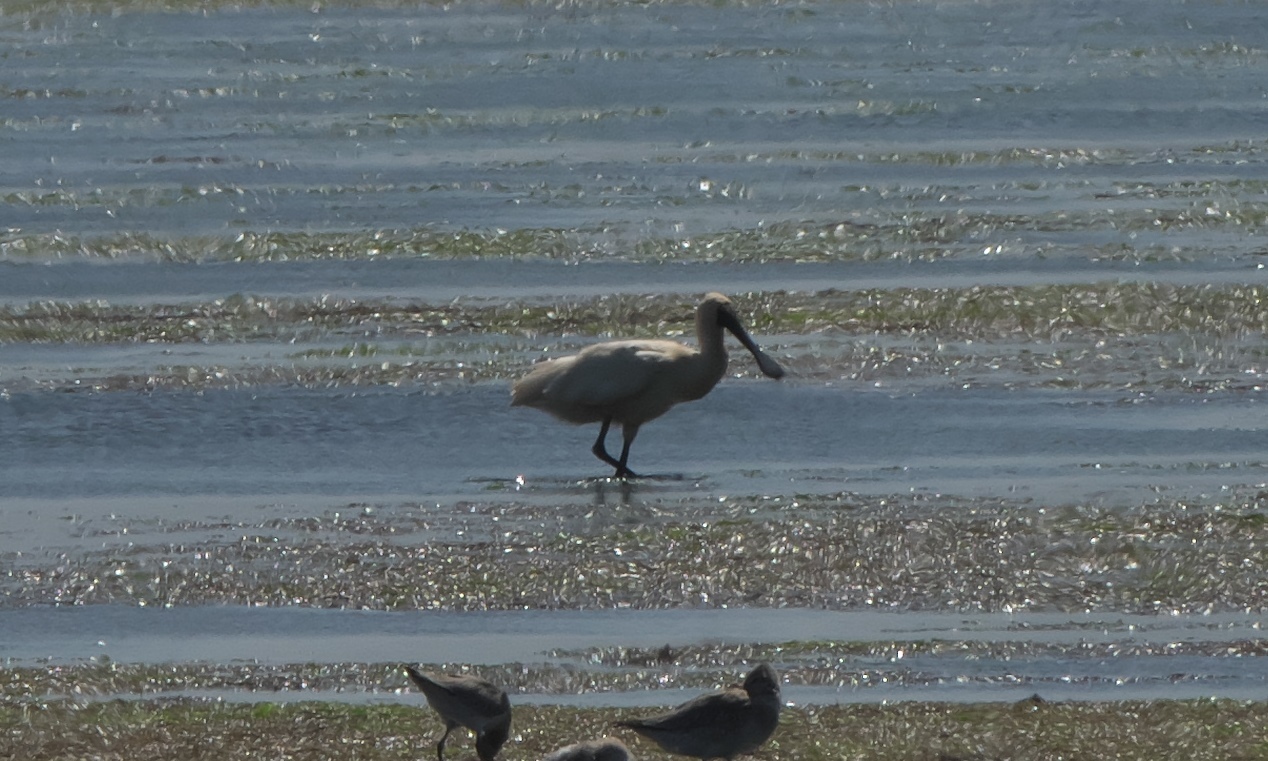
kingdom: Animalia
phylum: Chordata
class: Aves
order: Pelecaniformes
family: Threskiornithidae
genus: Platalea
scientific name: Platalea regia
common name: Royal spoonbill
